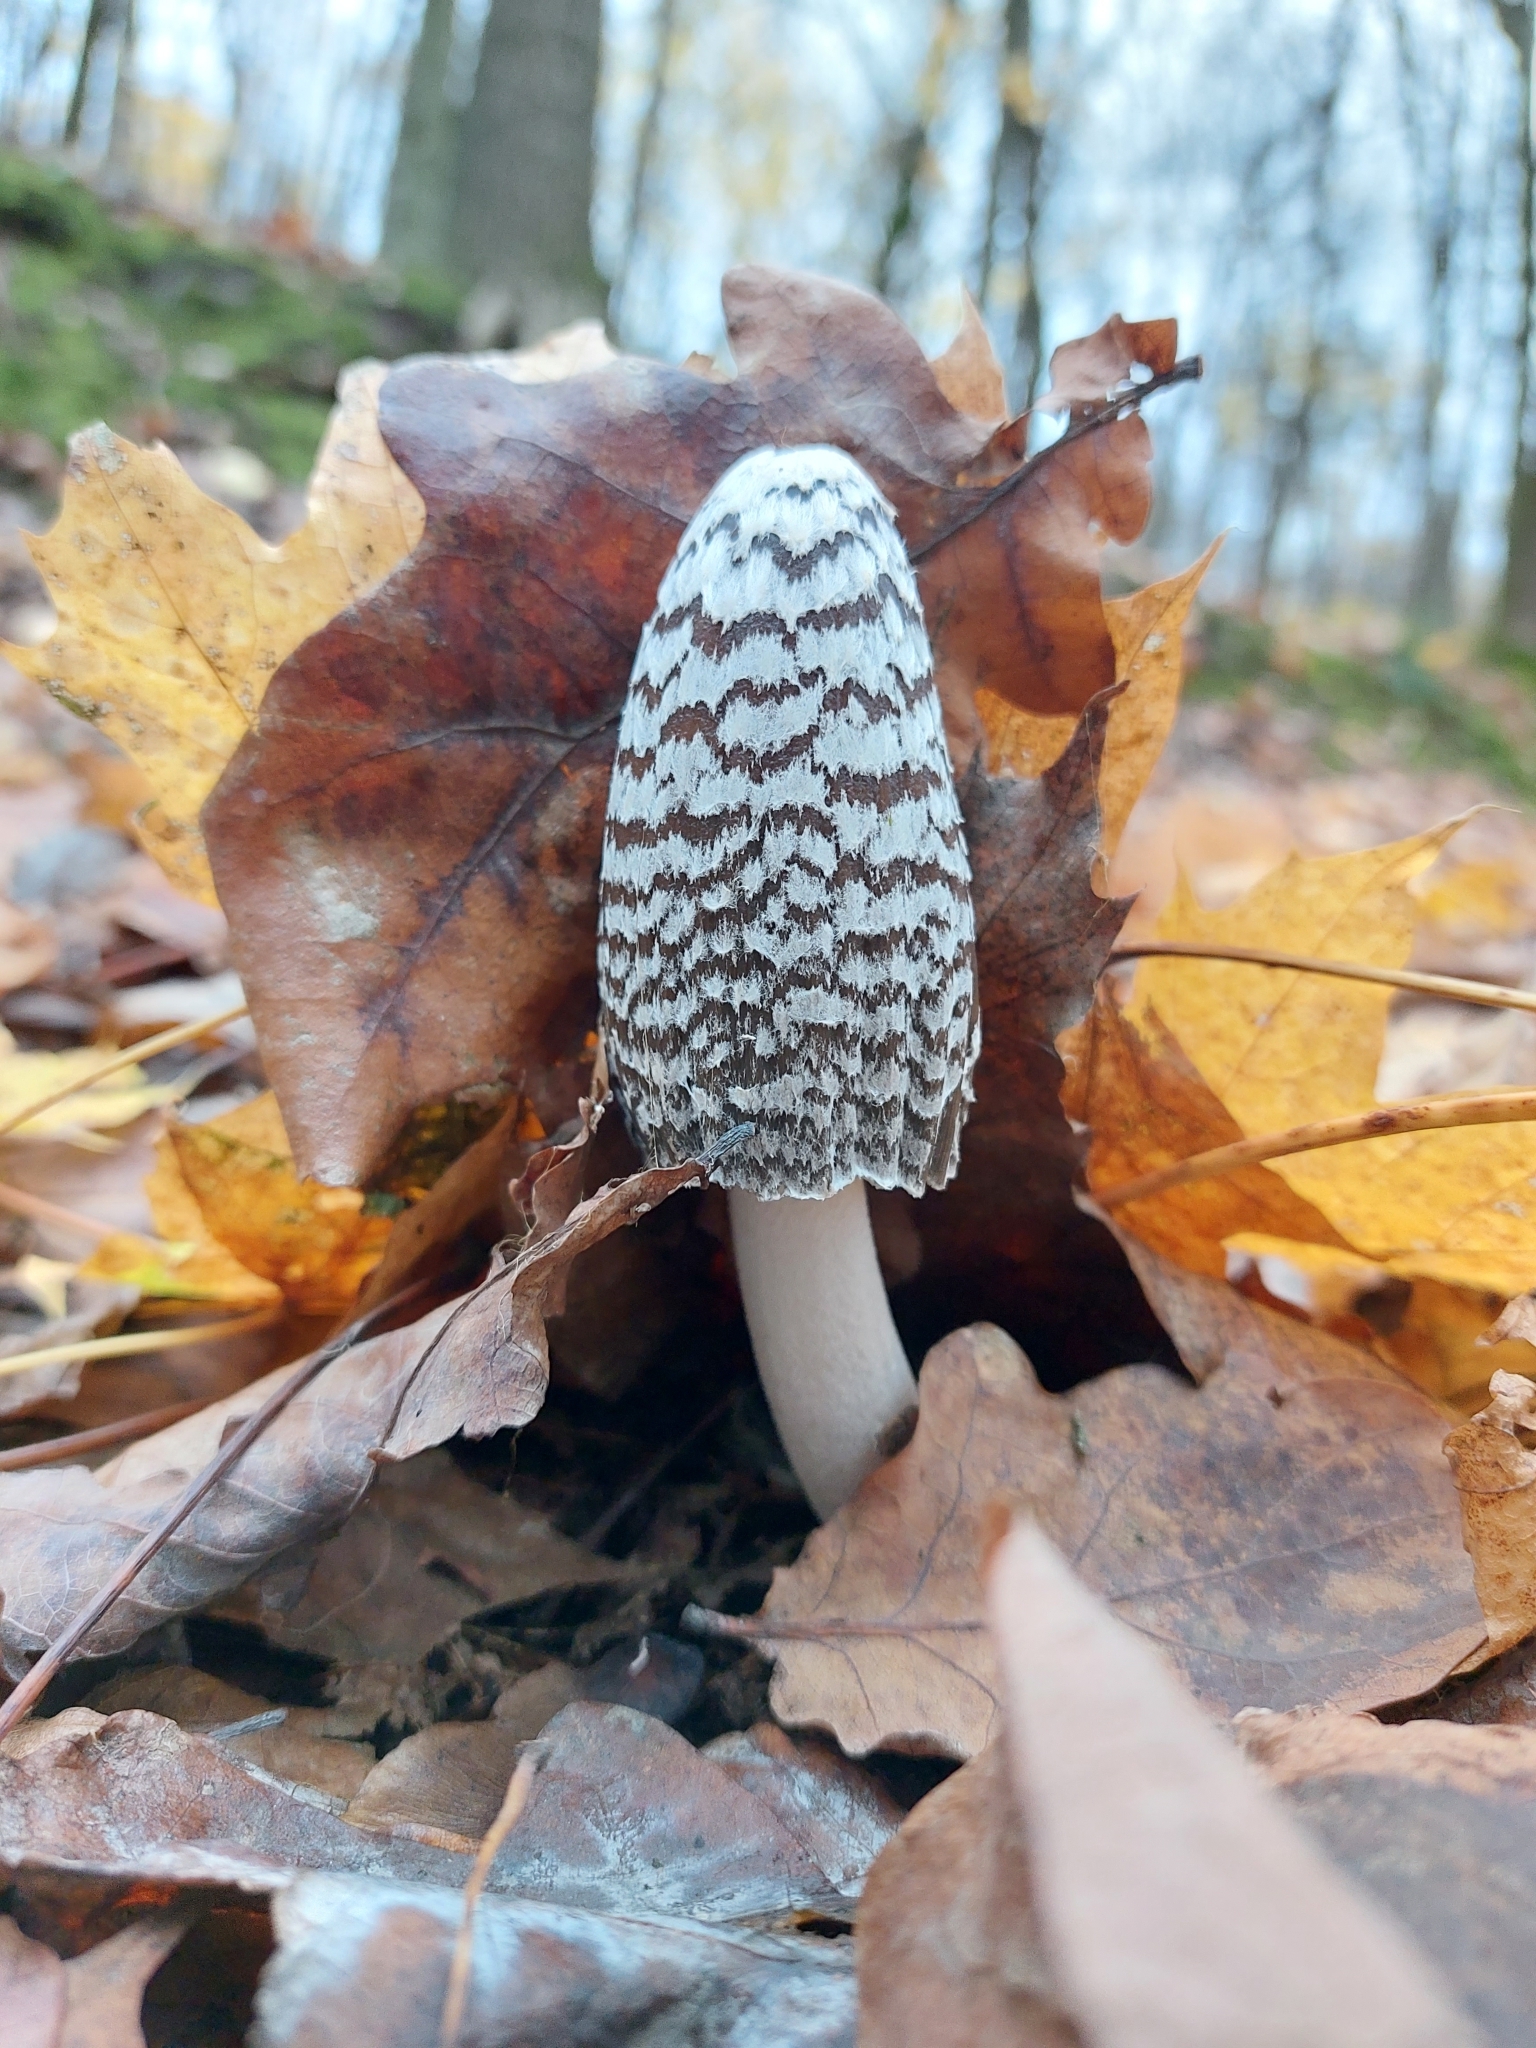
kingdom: Fungi
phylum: Basidiomycota
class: Agaricomycetes
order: Agaricales
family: Psathyrellaceae
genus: Coprinopsis
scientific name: Coprinopsis picacea
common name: Magpie inkcap
